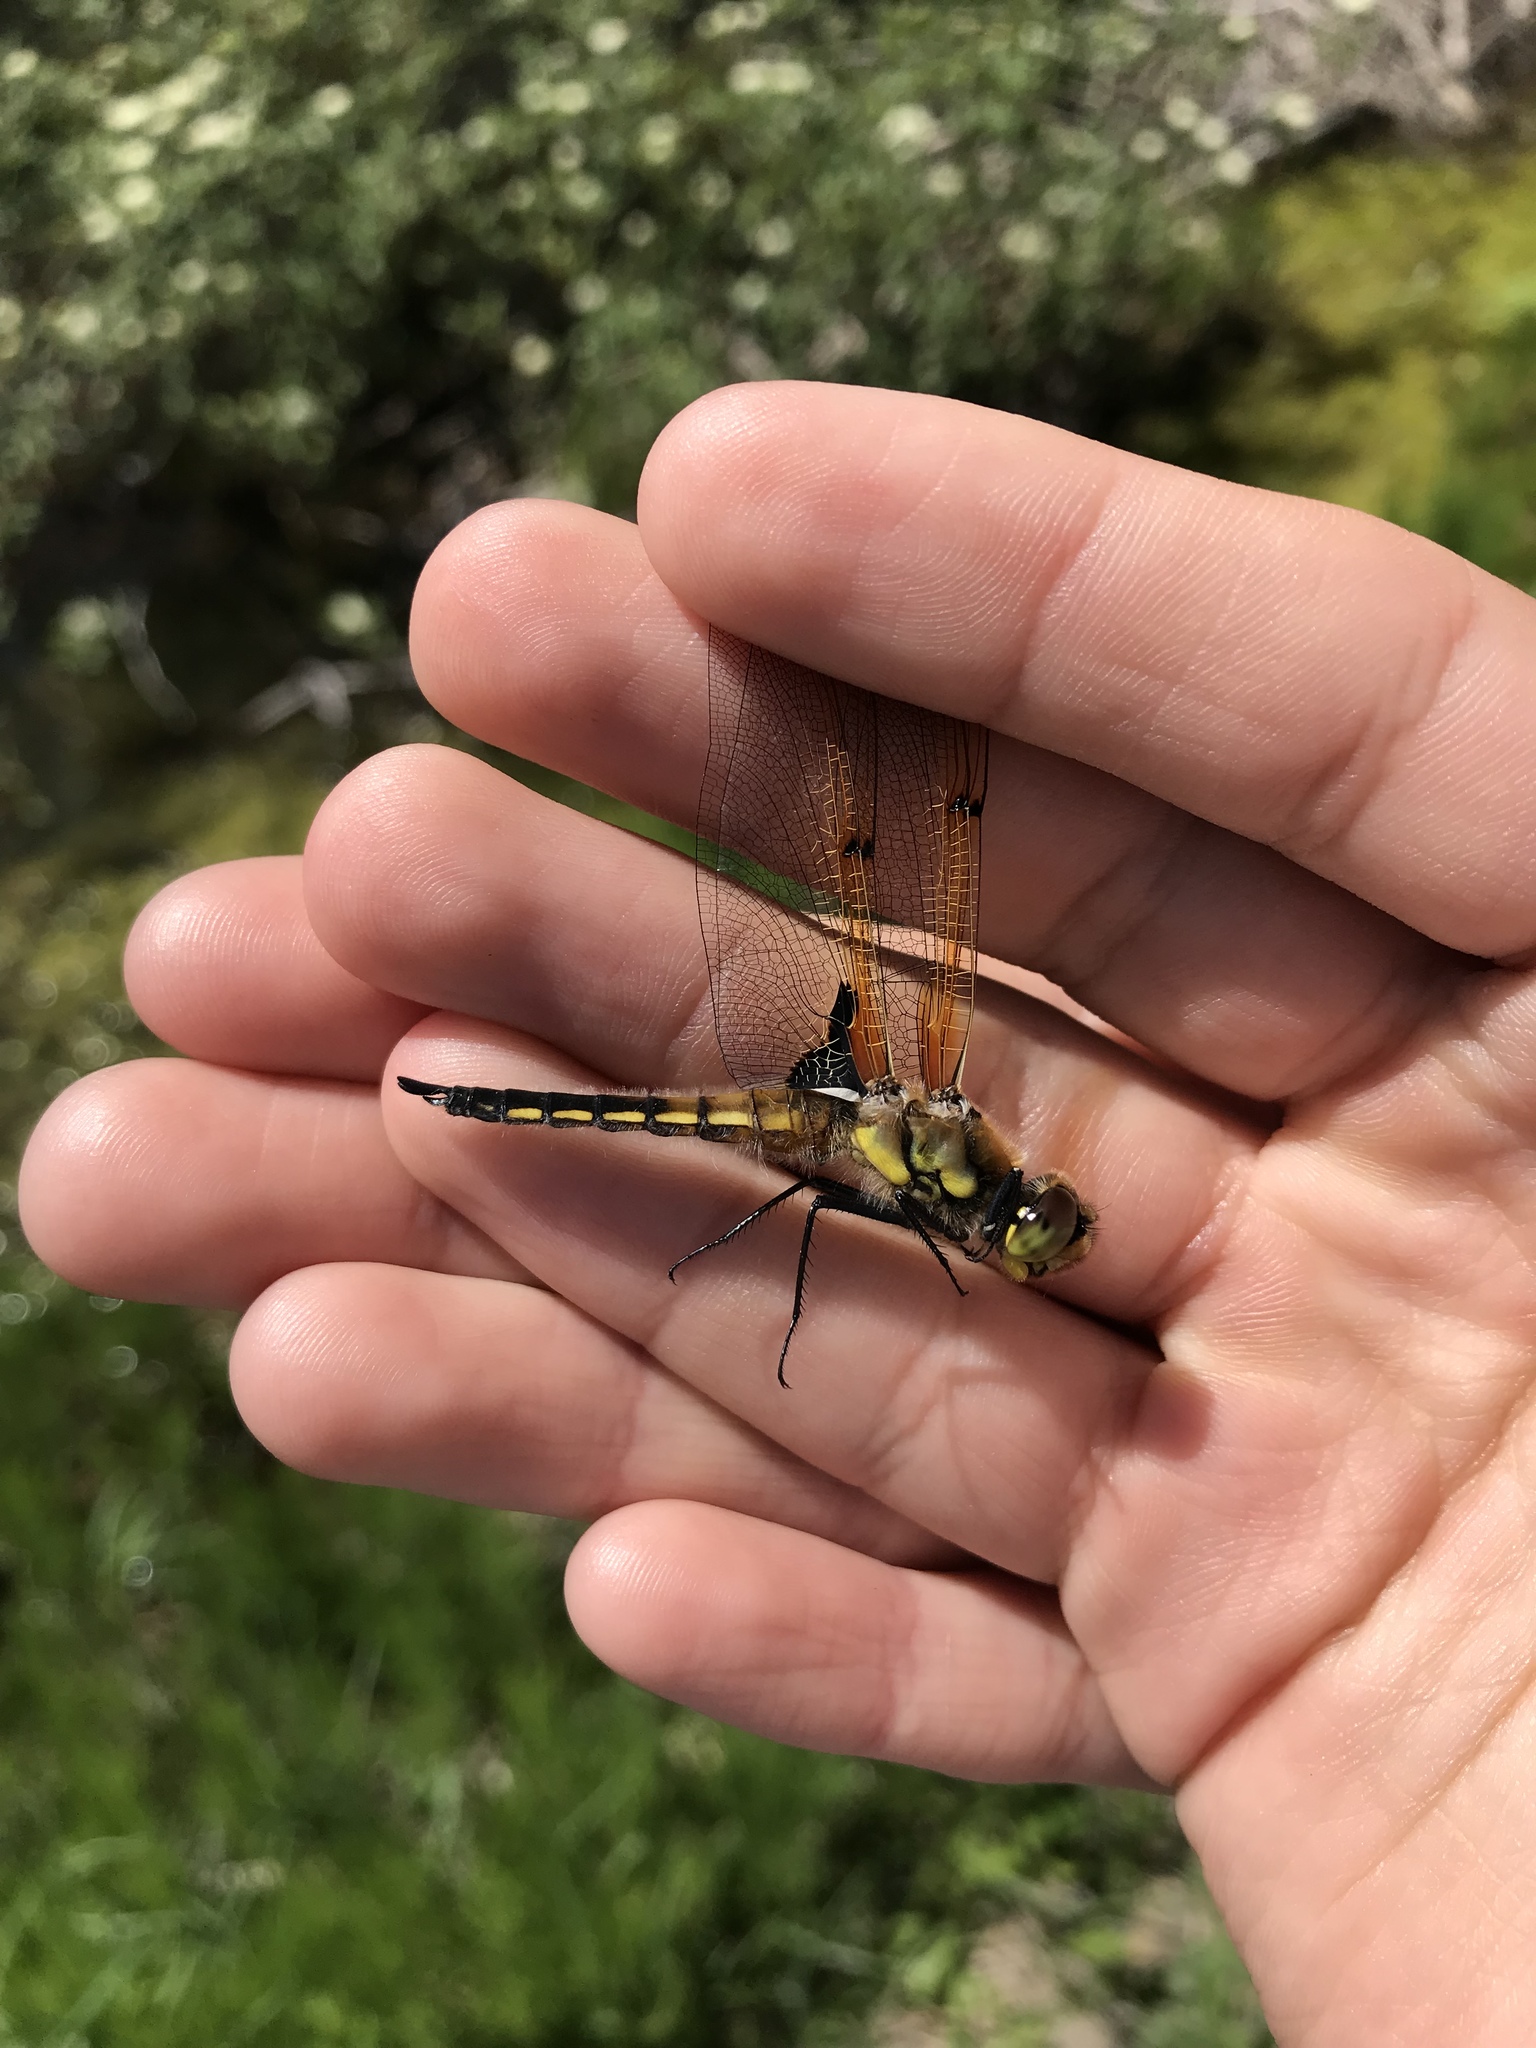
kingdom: Animalia
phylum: Arthropoda
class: Insecta
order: Odonata
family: Libellulidae
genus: Libellula
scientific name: Libellula quadrimaculata
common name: Four-spotted chaser
